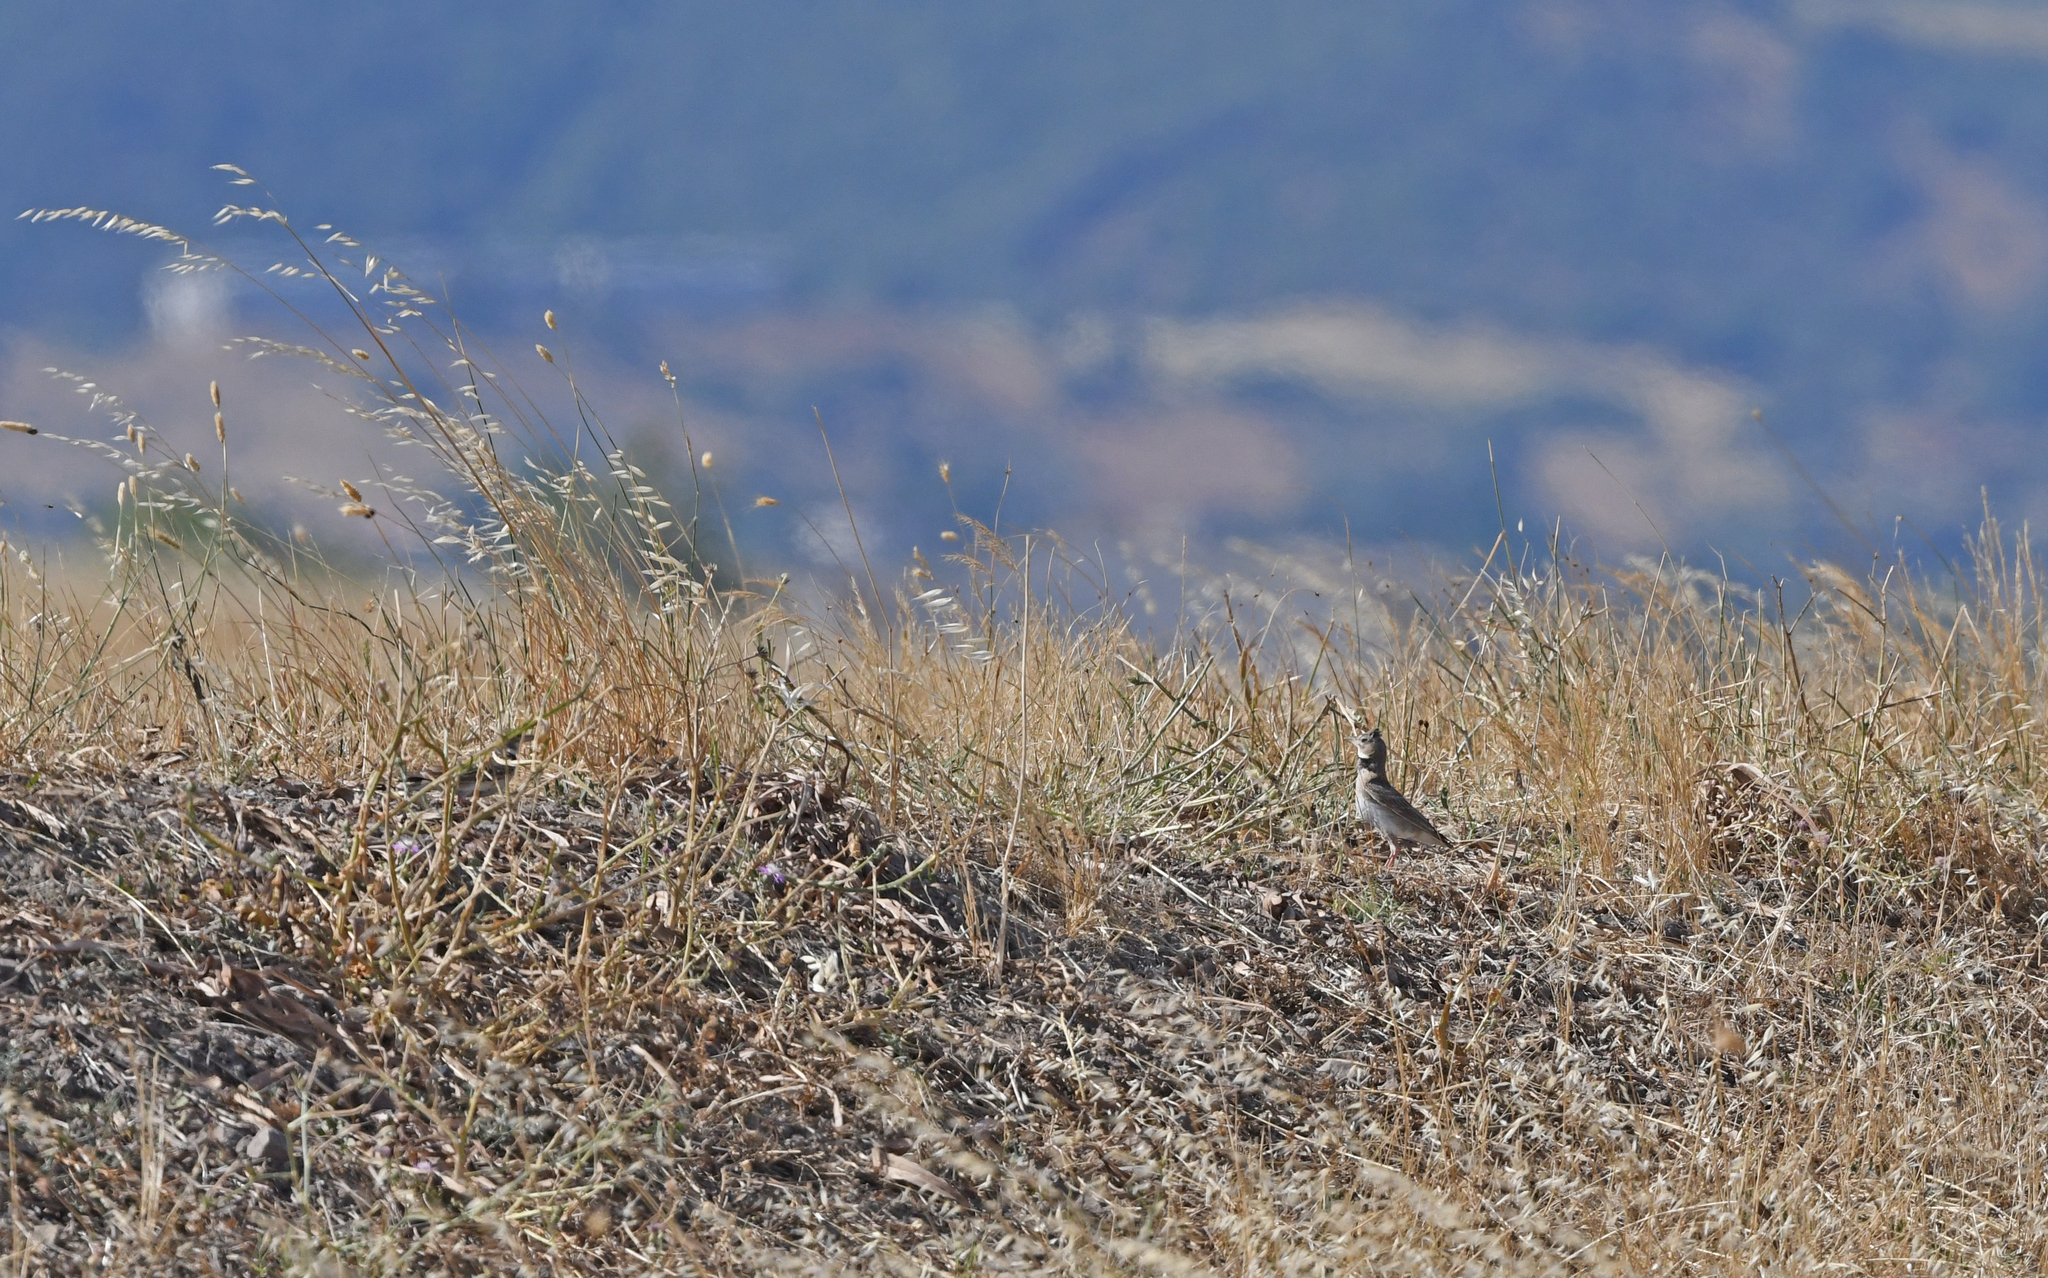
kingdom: Animalia
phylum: Chordata
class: Aves
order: Passeriformes
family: Alaudidae
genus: Melanocorypha
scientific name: Melanocorypha calandra
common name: Calandra lark
